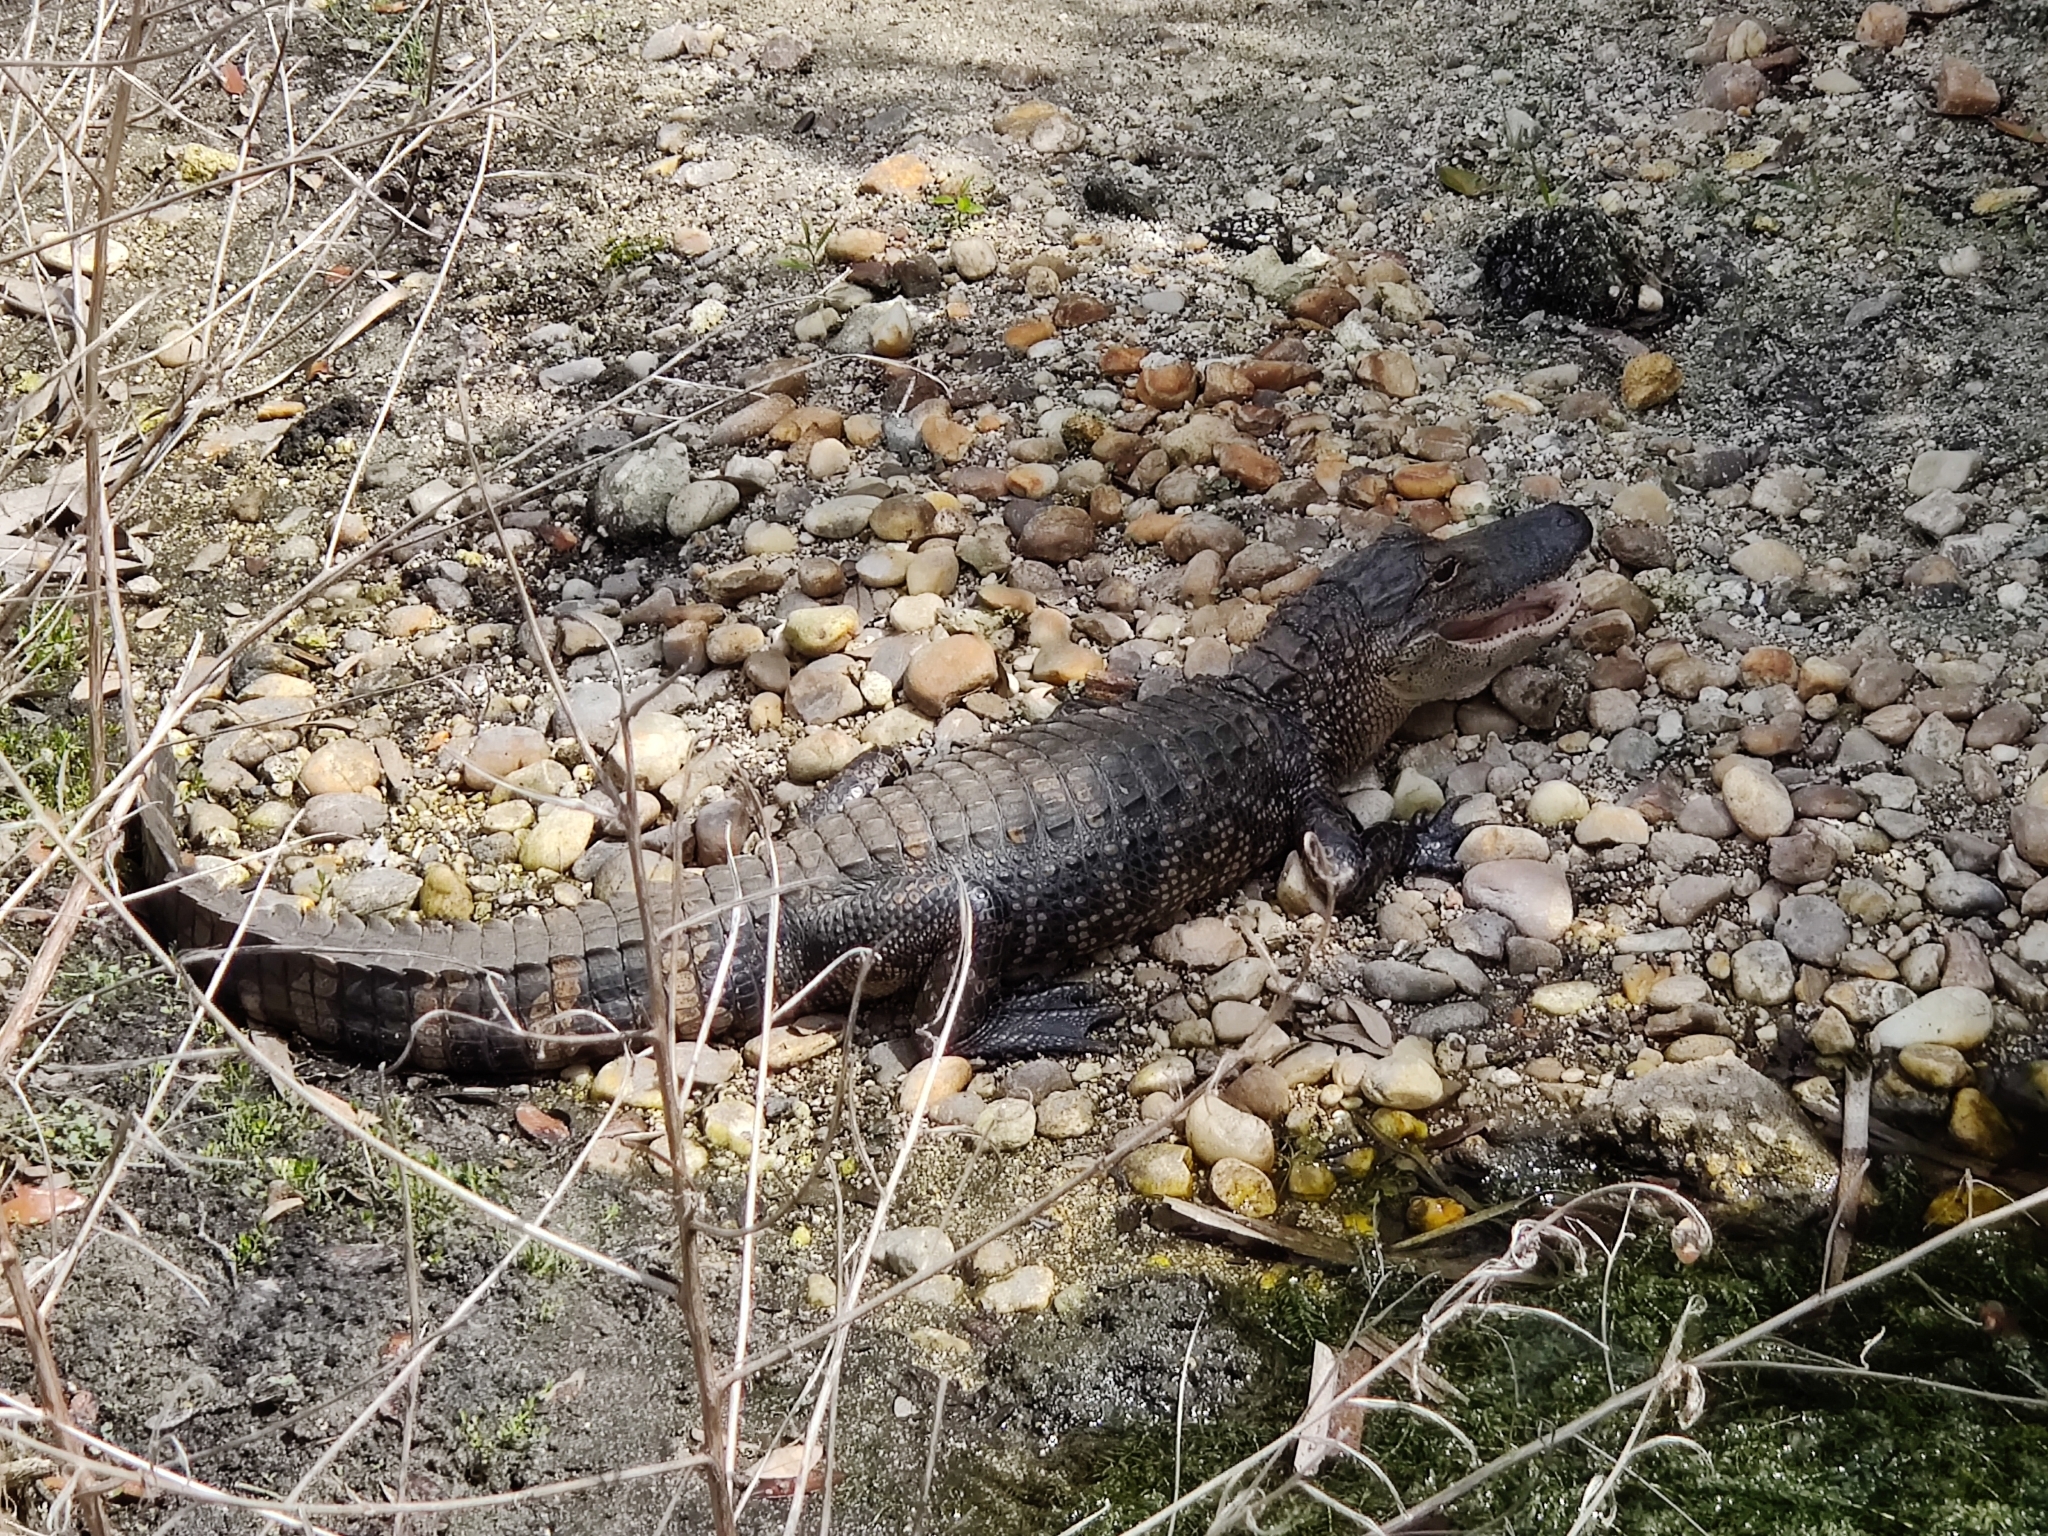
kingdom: Animalia
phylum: Chordata
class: Crocodylia
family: Alligatoridae
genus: Alligator
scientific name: Alligator mississippiensis
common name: American alligator
